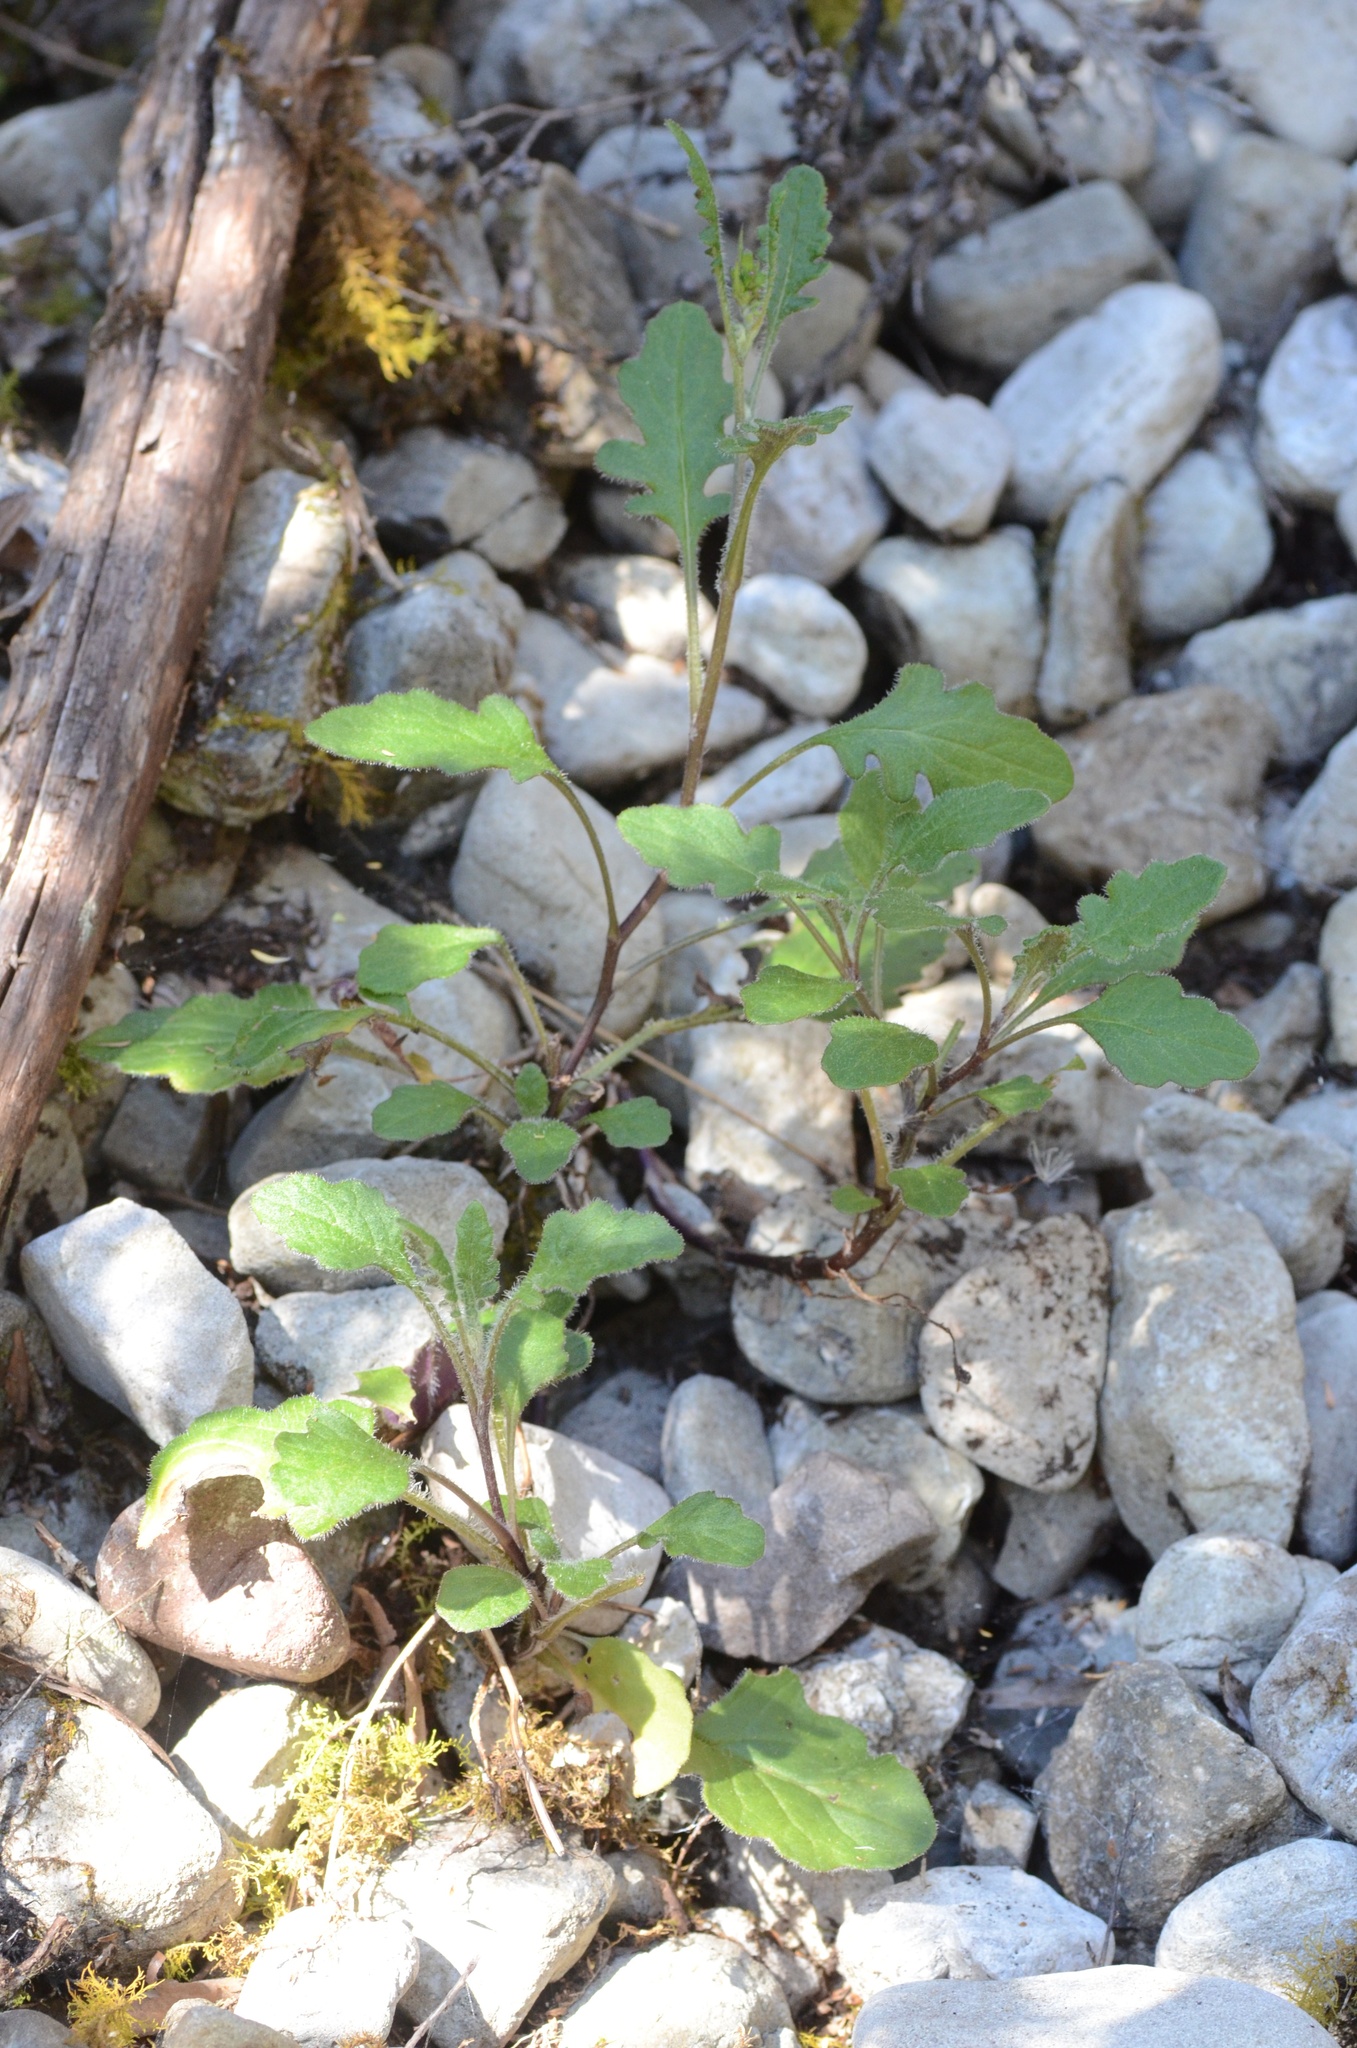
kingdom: Plantae
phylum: Tracheophyta
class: Magnoliopsida
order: Asterales
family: Asteraceae
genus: Senecio
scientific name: Senecio wairauensis
